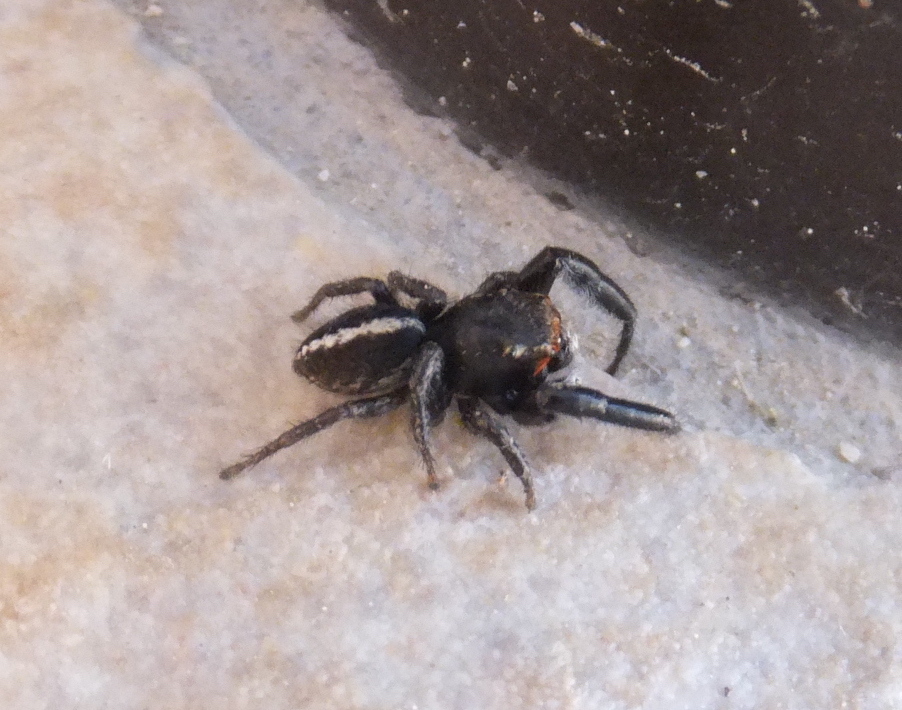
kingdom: Animalia
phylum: Arthropoda
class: Arachnida
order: Araneae
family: Salticidae
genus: Pellenes
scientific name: Pellenes seriatus
